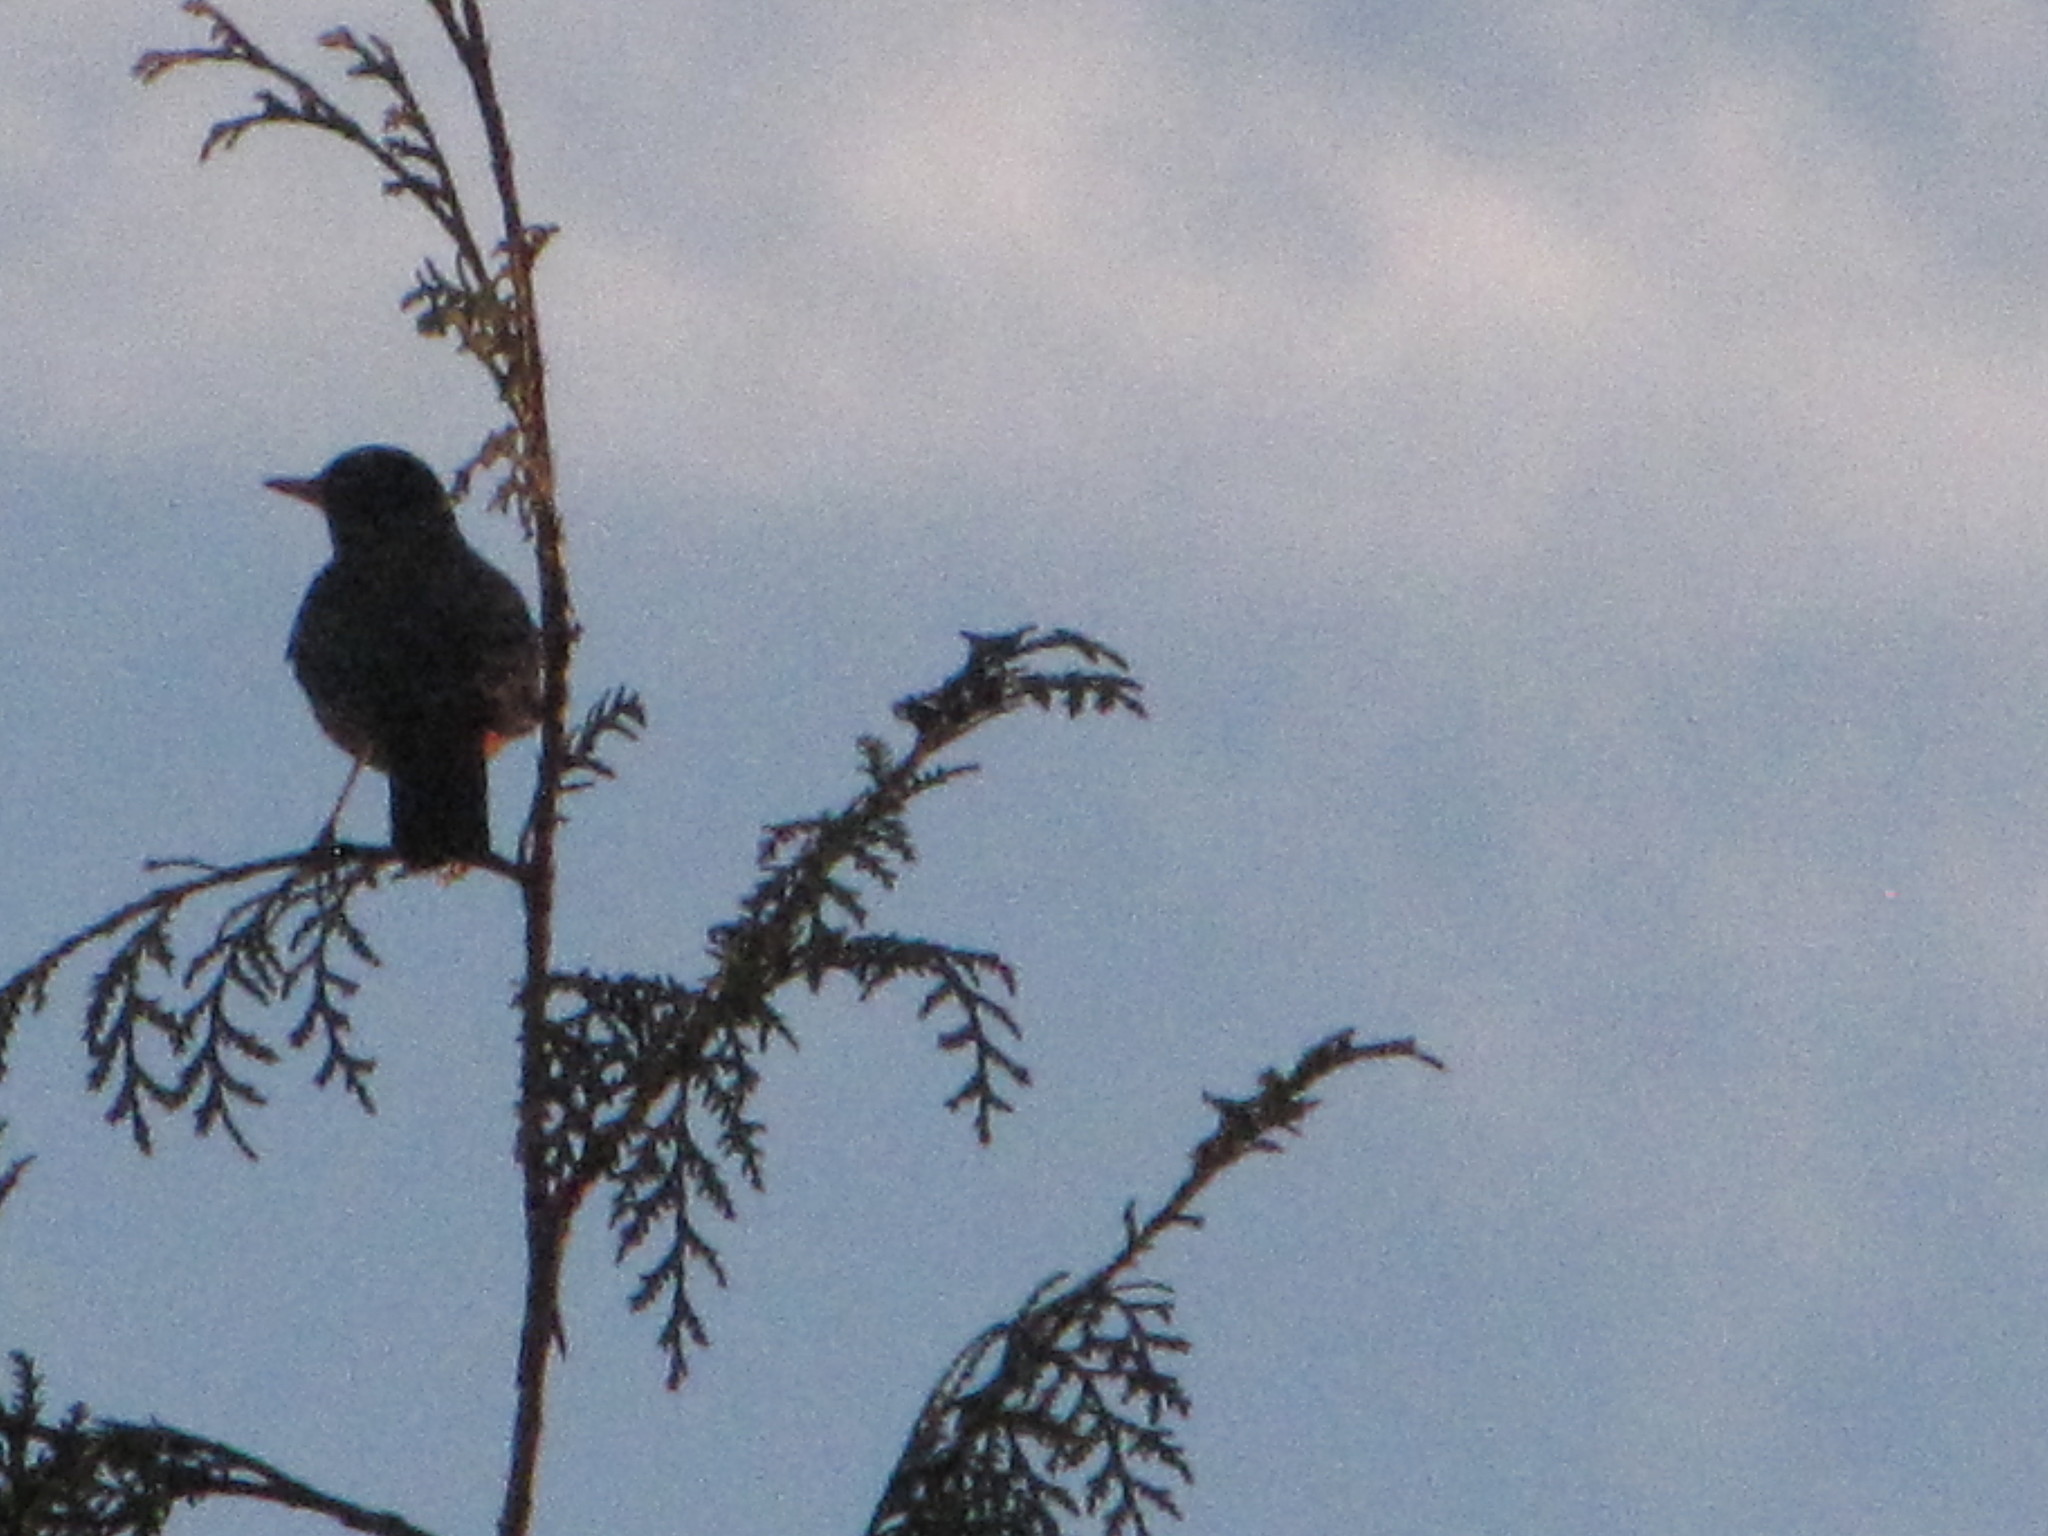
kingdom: Animalia
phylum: Chordata
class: Aves
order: Passeriformes
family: Turdidae
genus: Turdus
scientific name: Turdus migratorius
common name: American robin
